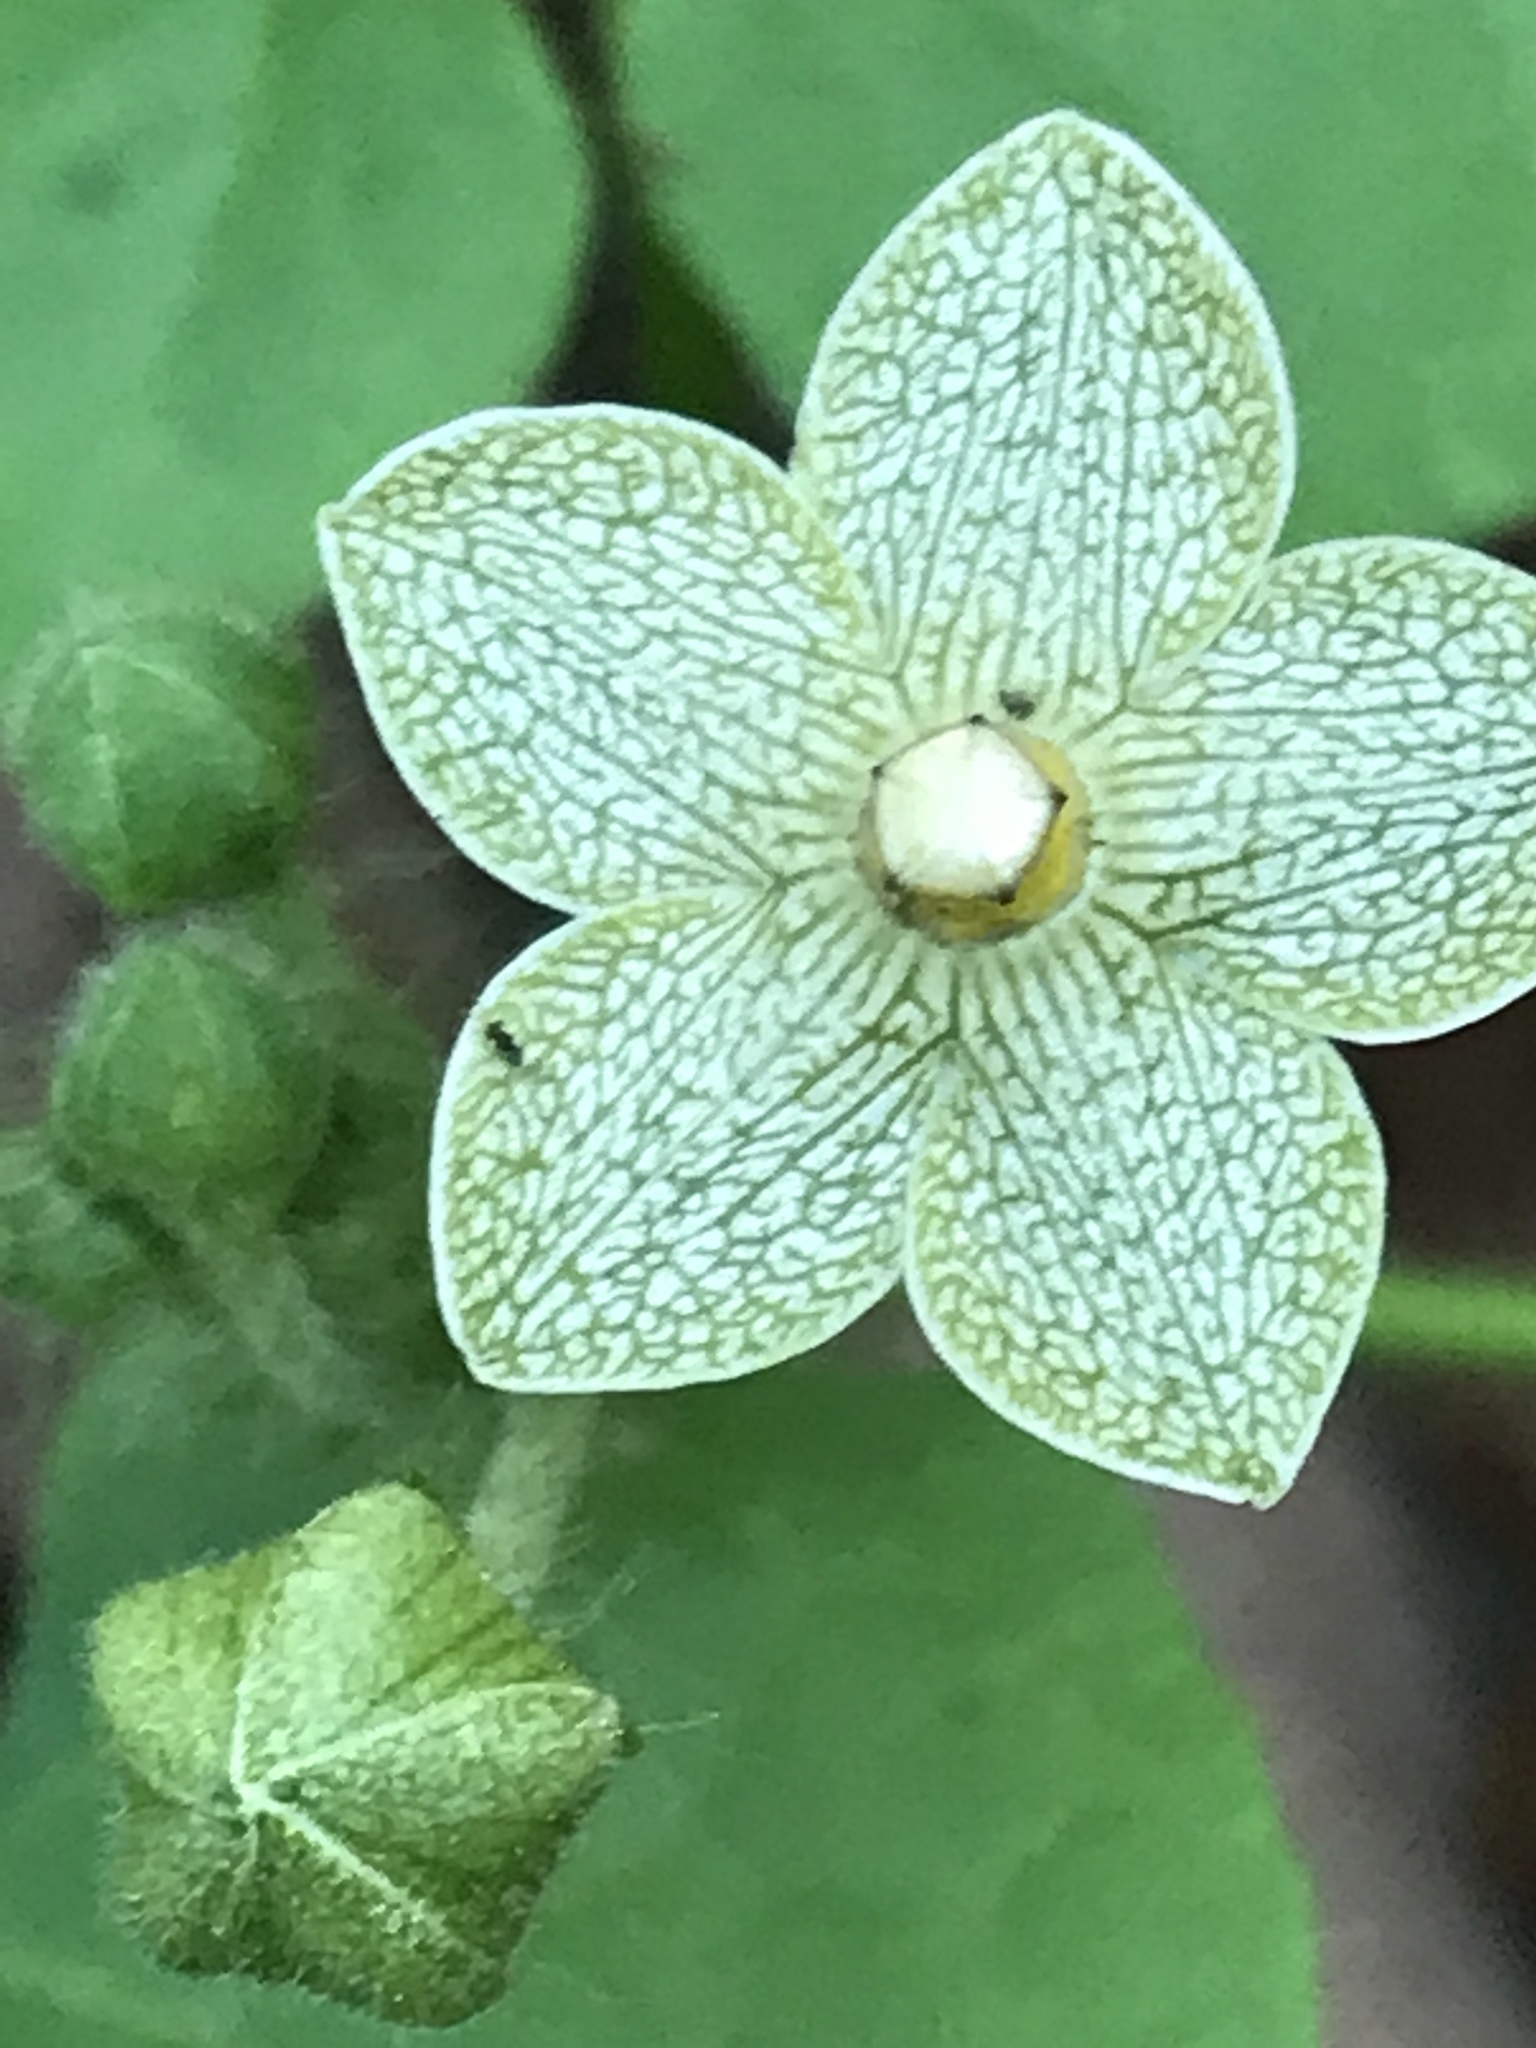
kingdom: Plantae
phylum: Tracheophyta
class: Magnoliopsida
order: Gentianales
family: Apocynaceae
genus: Dictyanthus
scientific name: Dictyanthus reticulatus
